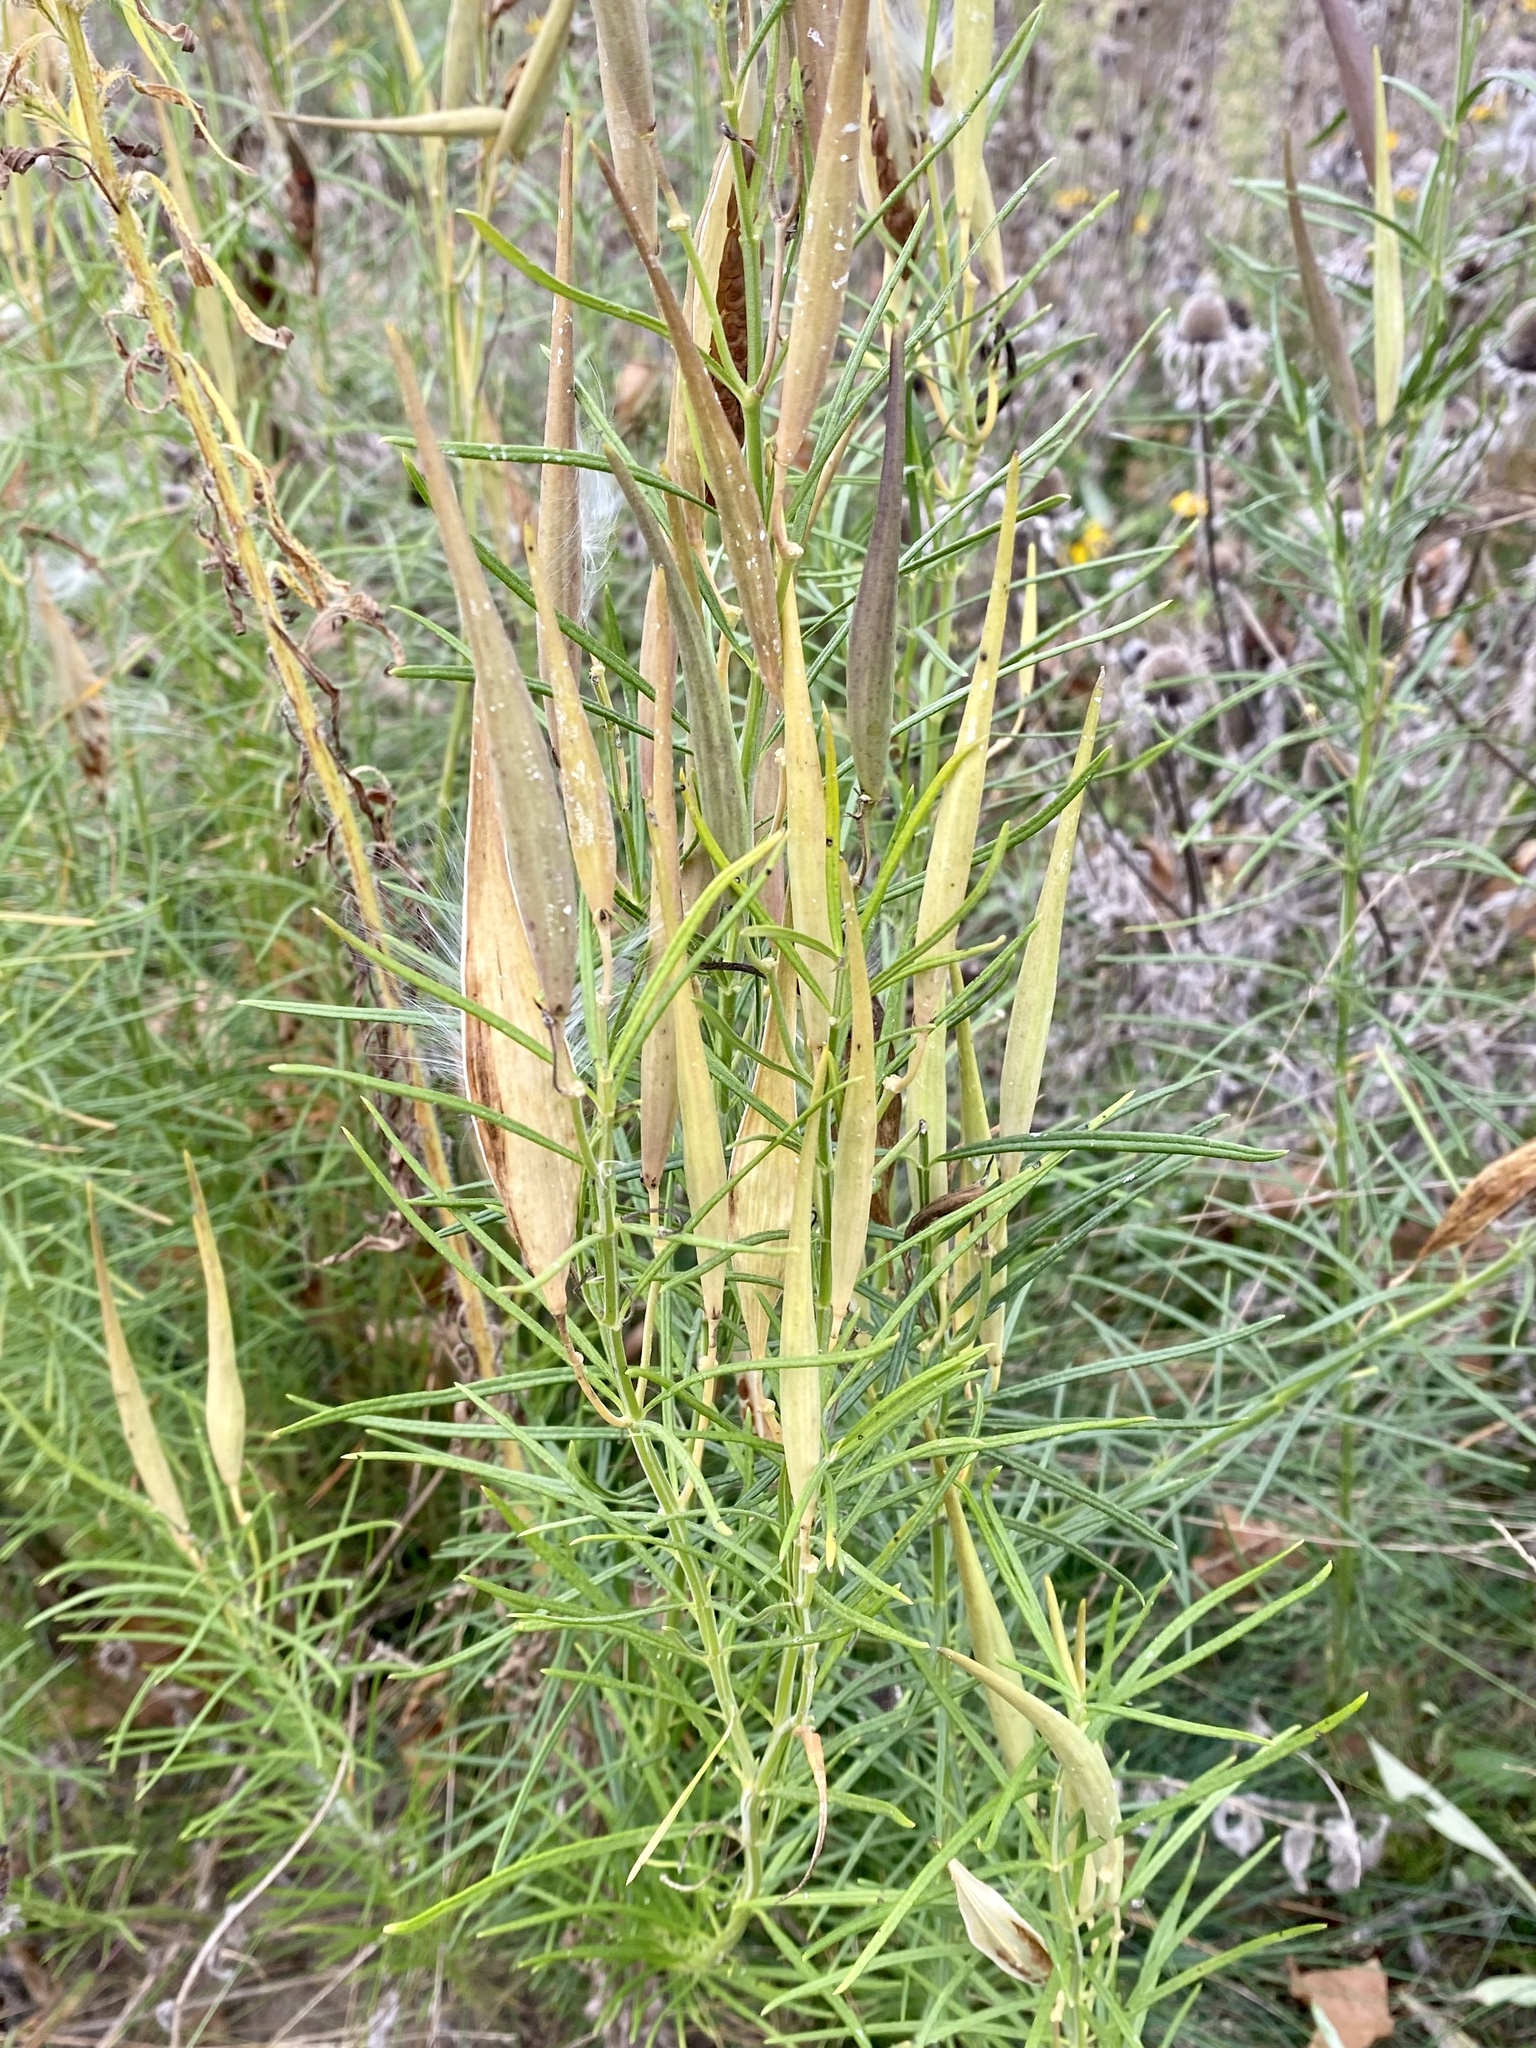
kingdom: Plantae
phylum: Tracheophyta
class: Magnoliopsida
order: Gentianales
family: Apocynaceae
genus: Asclepias
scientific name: Asclepias verticillata
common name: Eastern whorled milkweed
